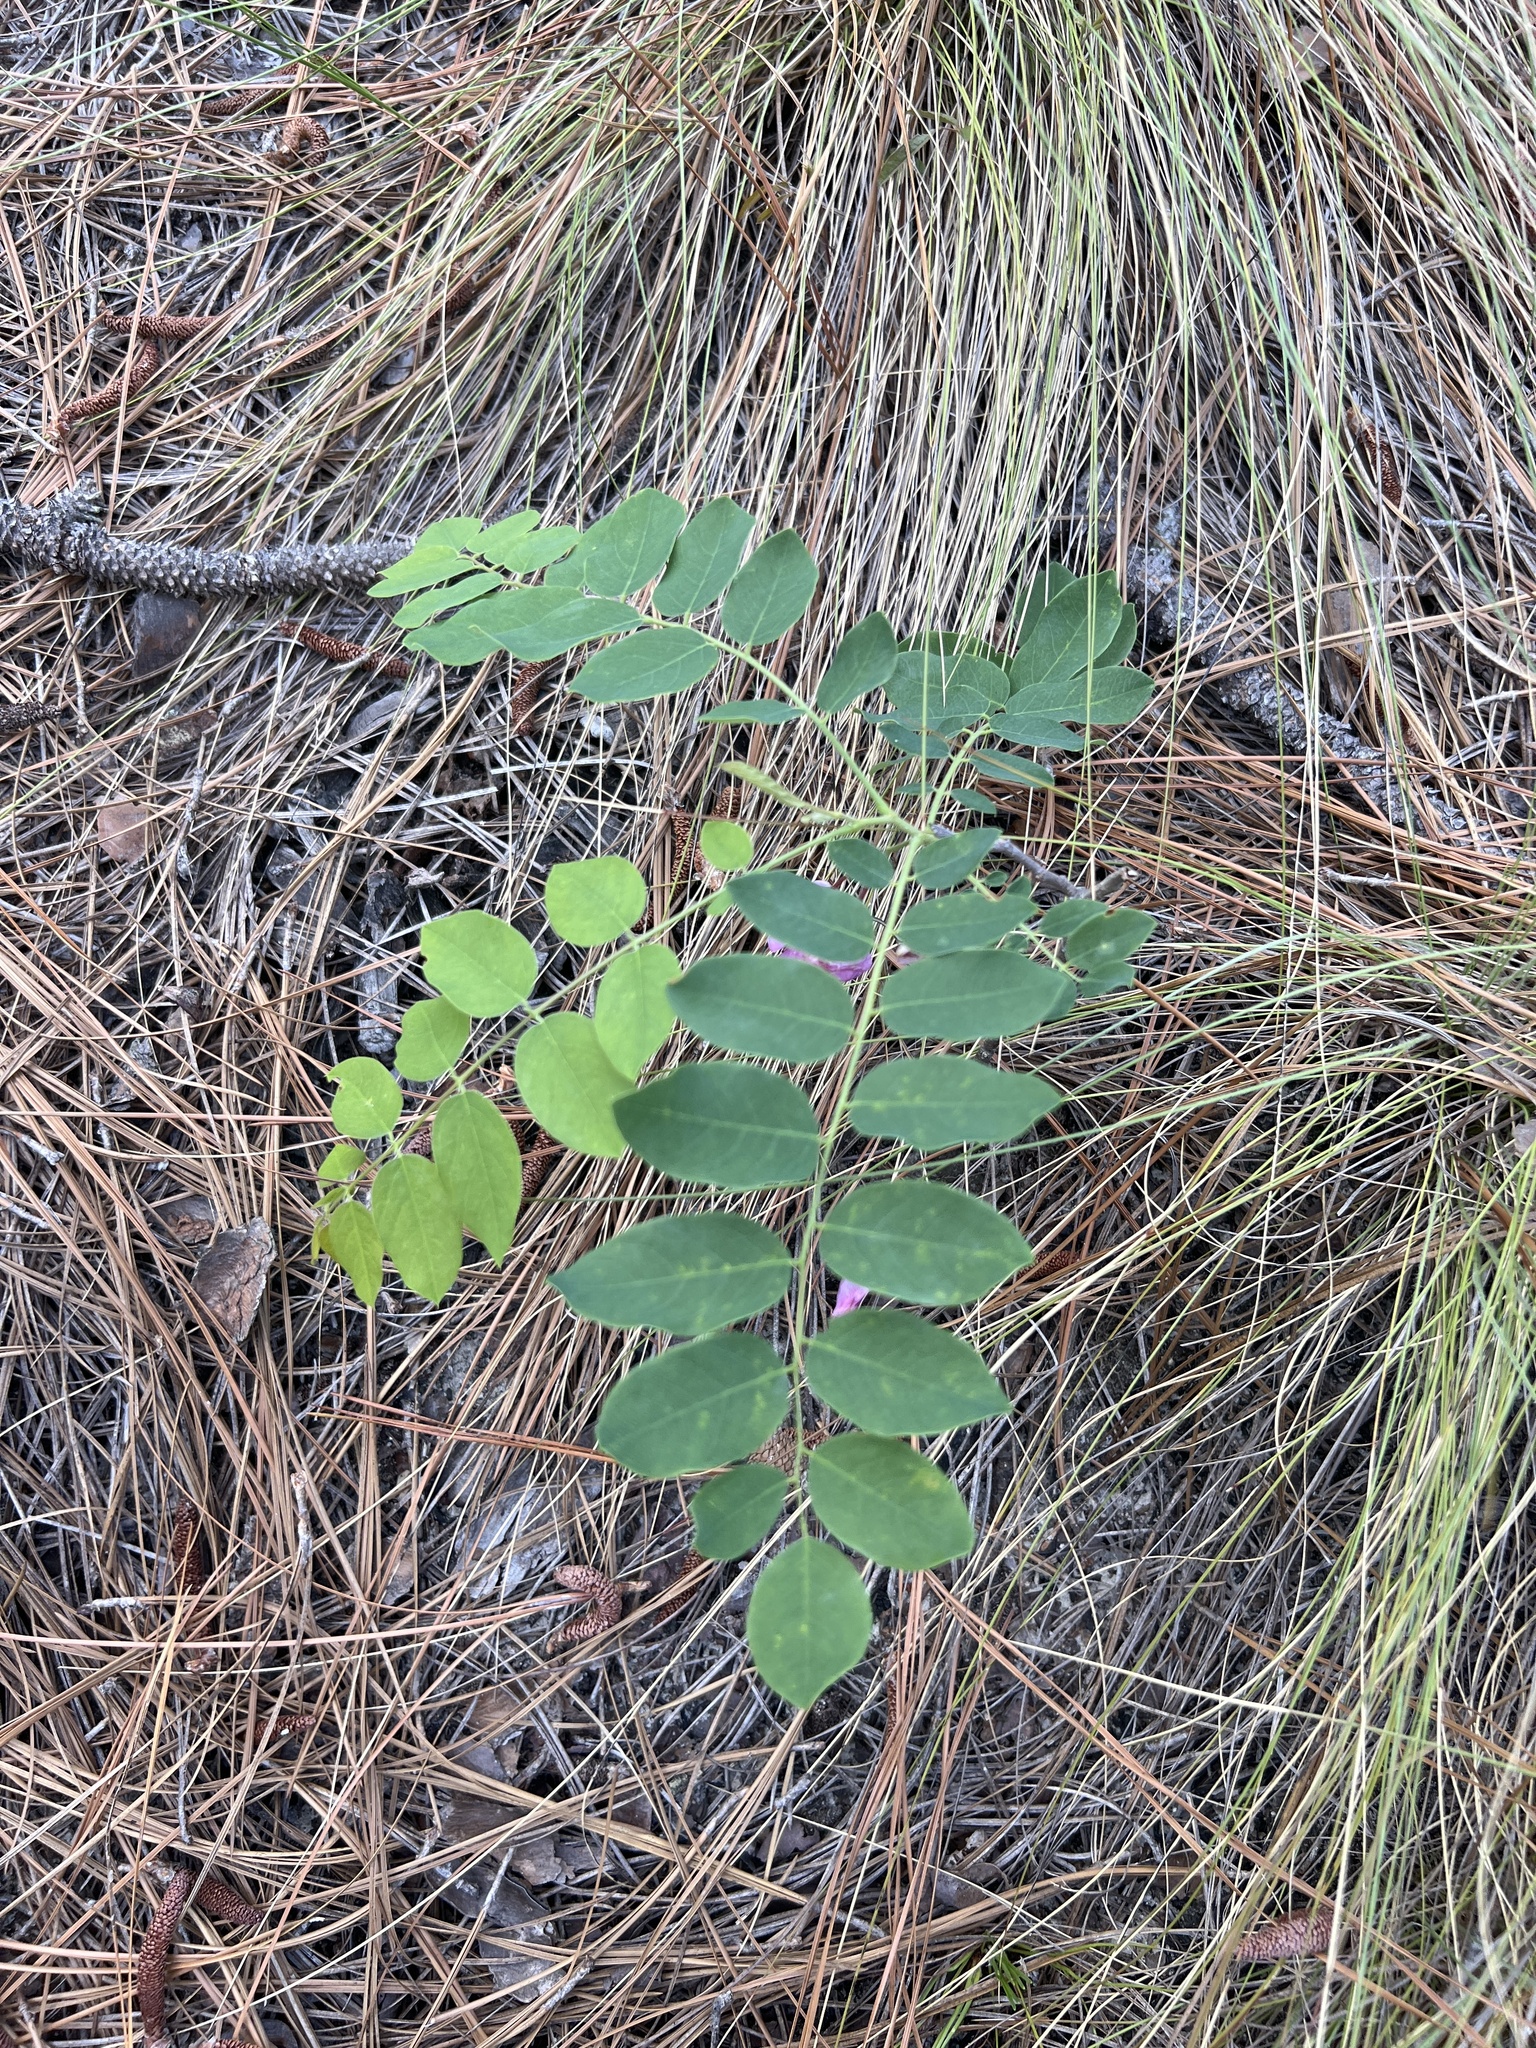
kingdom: Plantae
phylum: Tracheophyta
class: Magnoliopsida
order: Fabales
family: Fabaceae
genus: Robinia
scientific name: Robinia hispida
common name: Bristly locust
